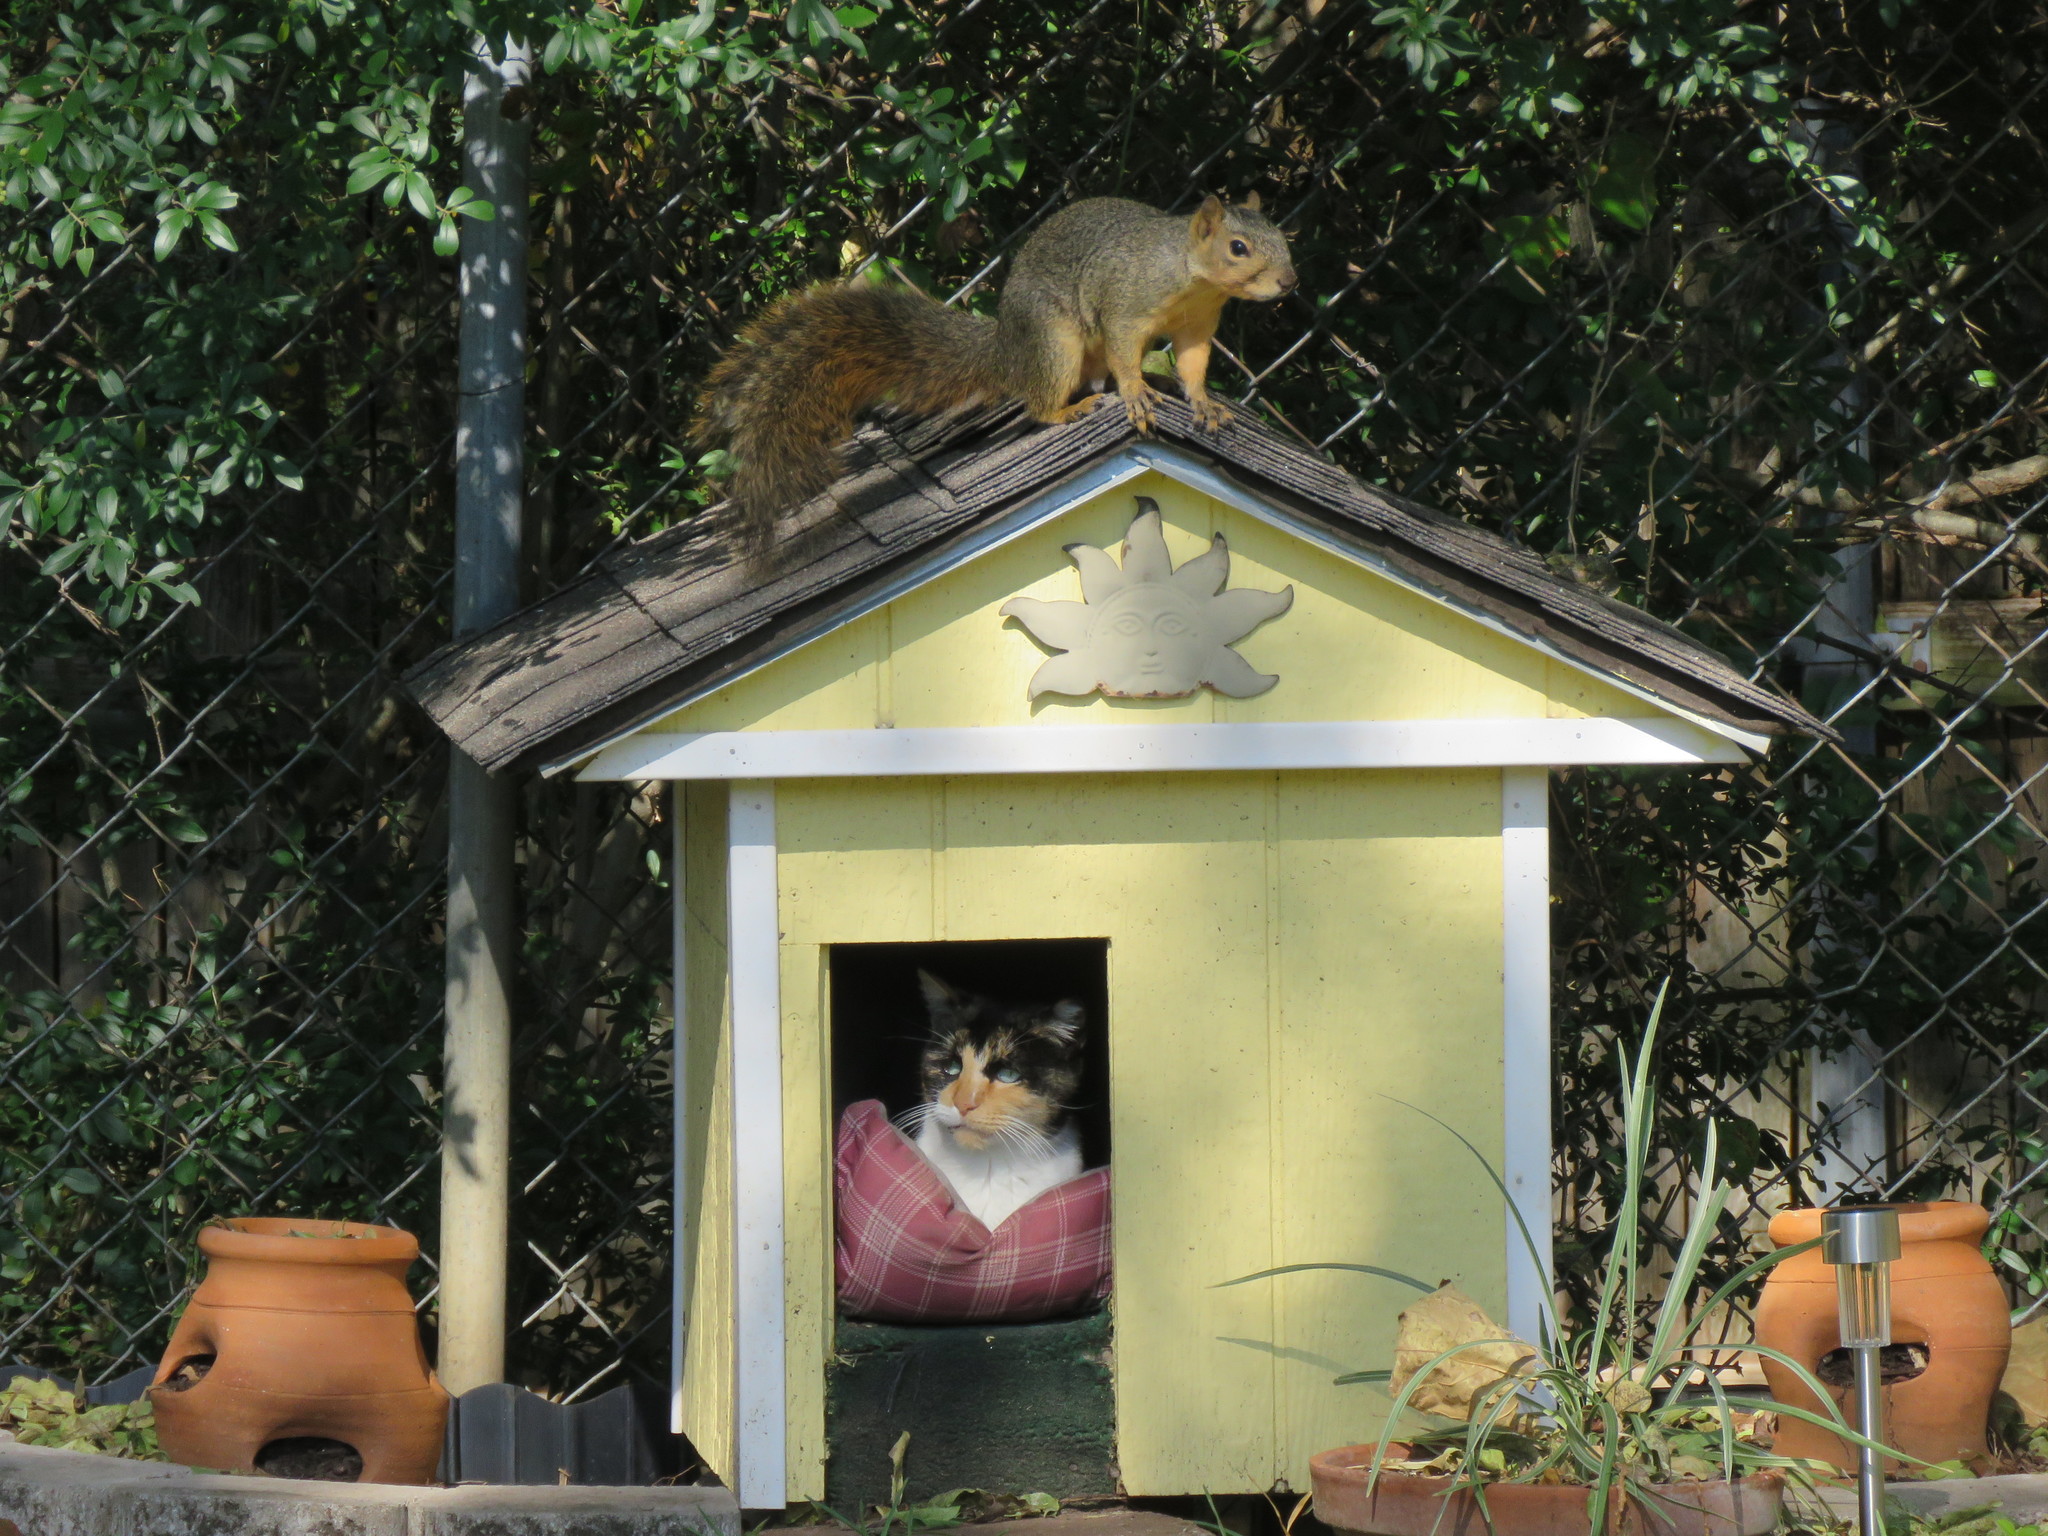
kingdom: Animalia
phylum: Chordata
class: Mammalia
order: Rodentia
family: Sciuridae
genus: Sciurus
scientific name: Sciurus niger
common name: Fox squirrel
